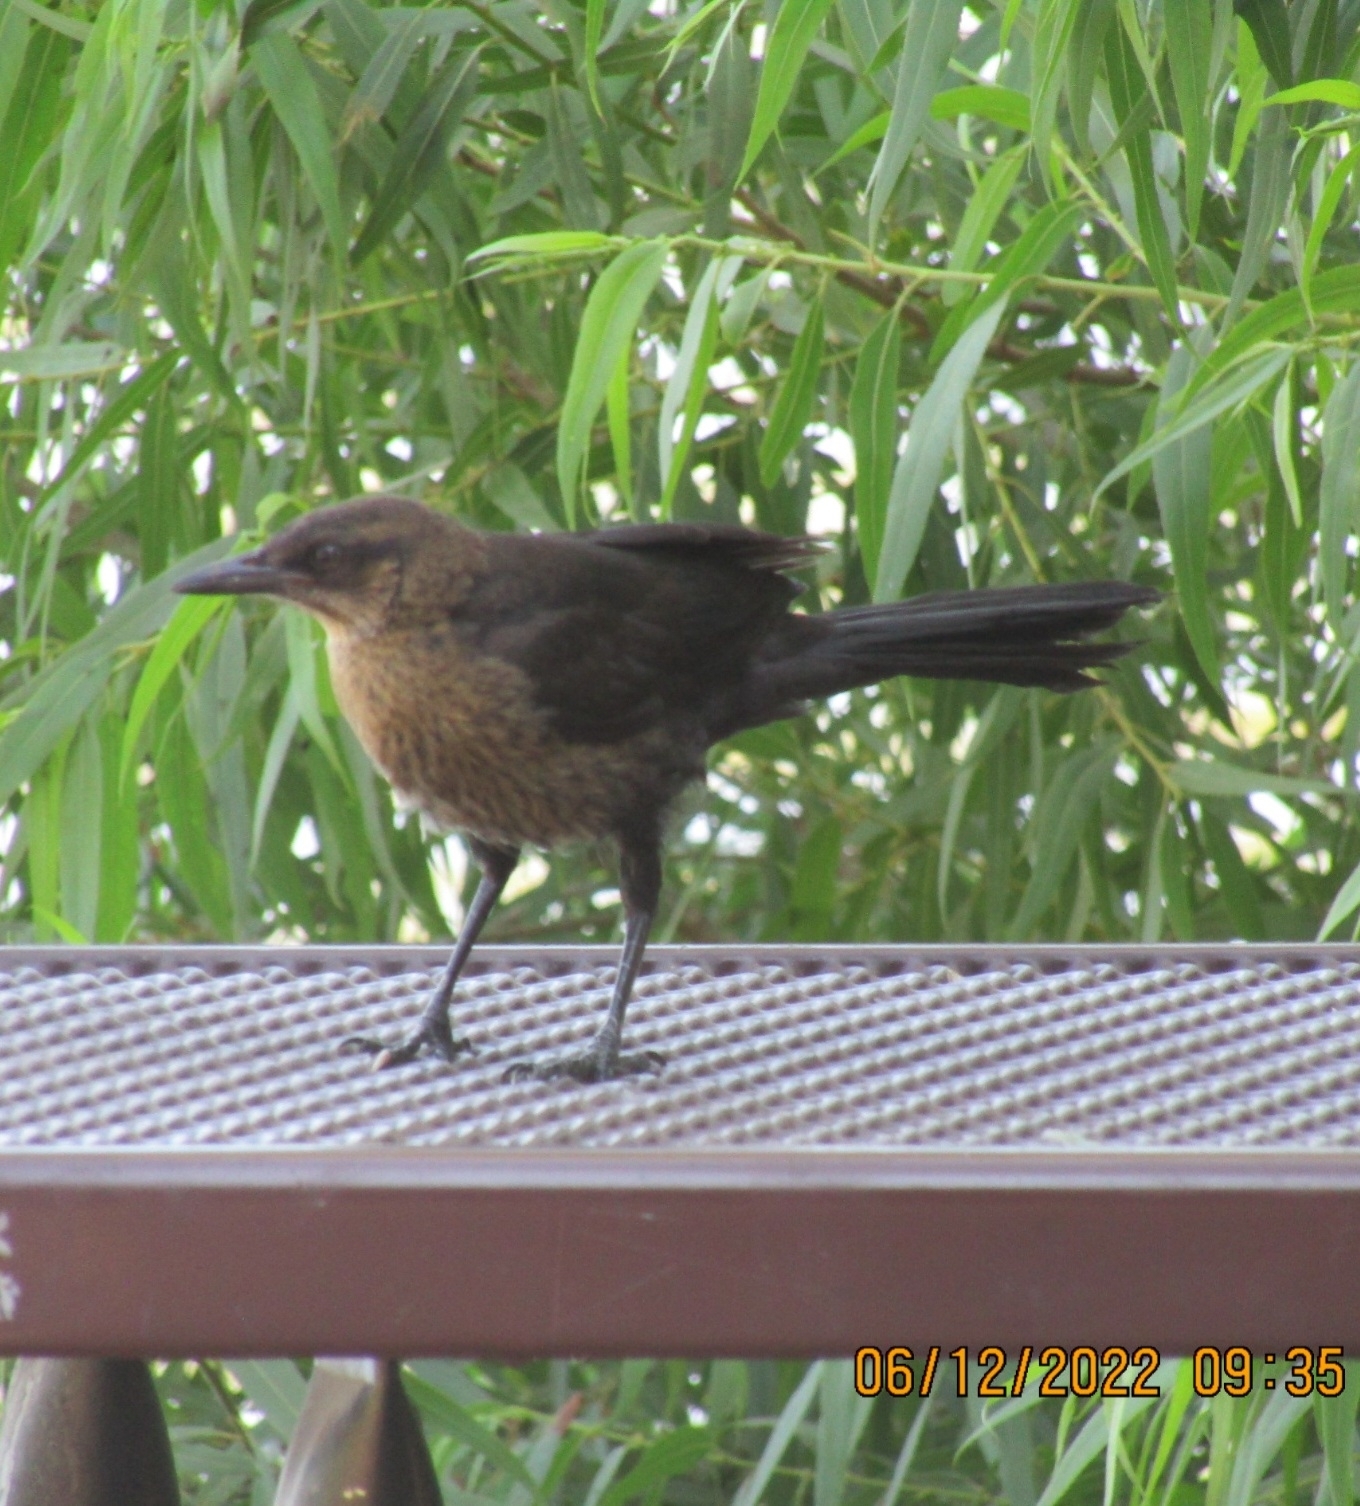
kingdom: Animalia
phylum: Chordata
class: Aves
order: Passeriformes
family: Icteridae
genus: Quiscalus
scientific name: Quiscalus mexicanus
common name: Great-tailed grackle
